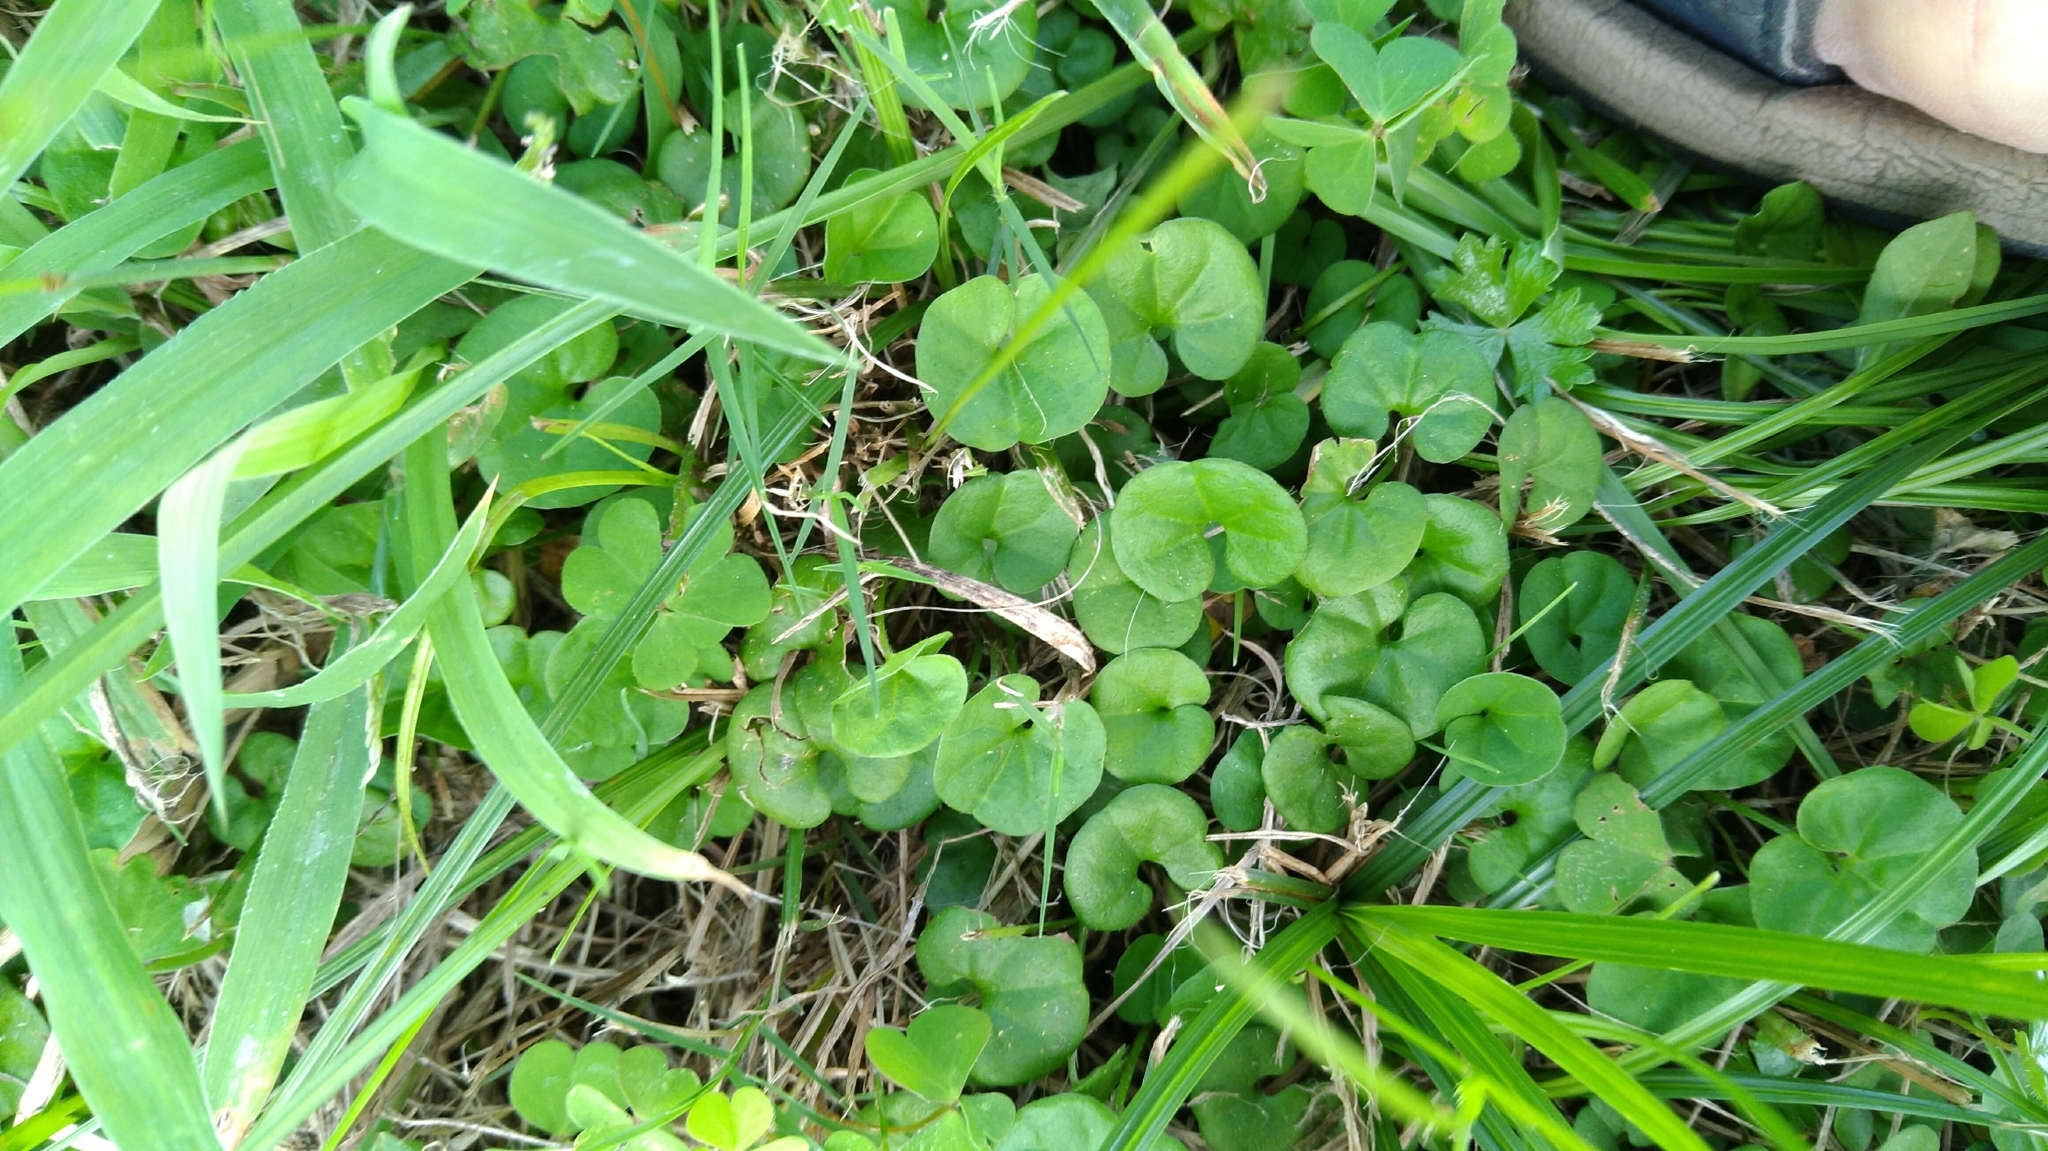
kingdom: Plantae
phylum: Tracheophyta
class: Magnoliopsida
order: Solanales
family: Convolvulaceae
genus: Dichondra
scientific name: Dichondra micrantha
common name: Kidneyweed
